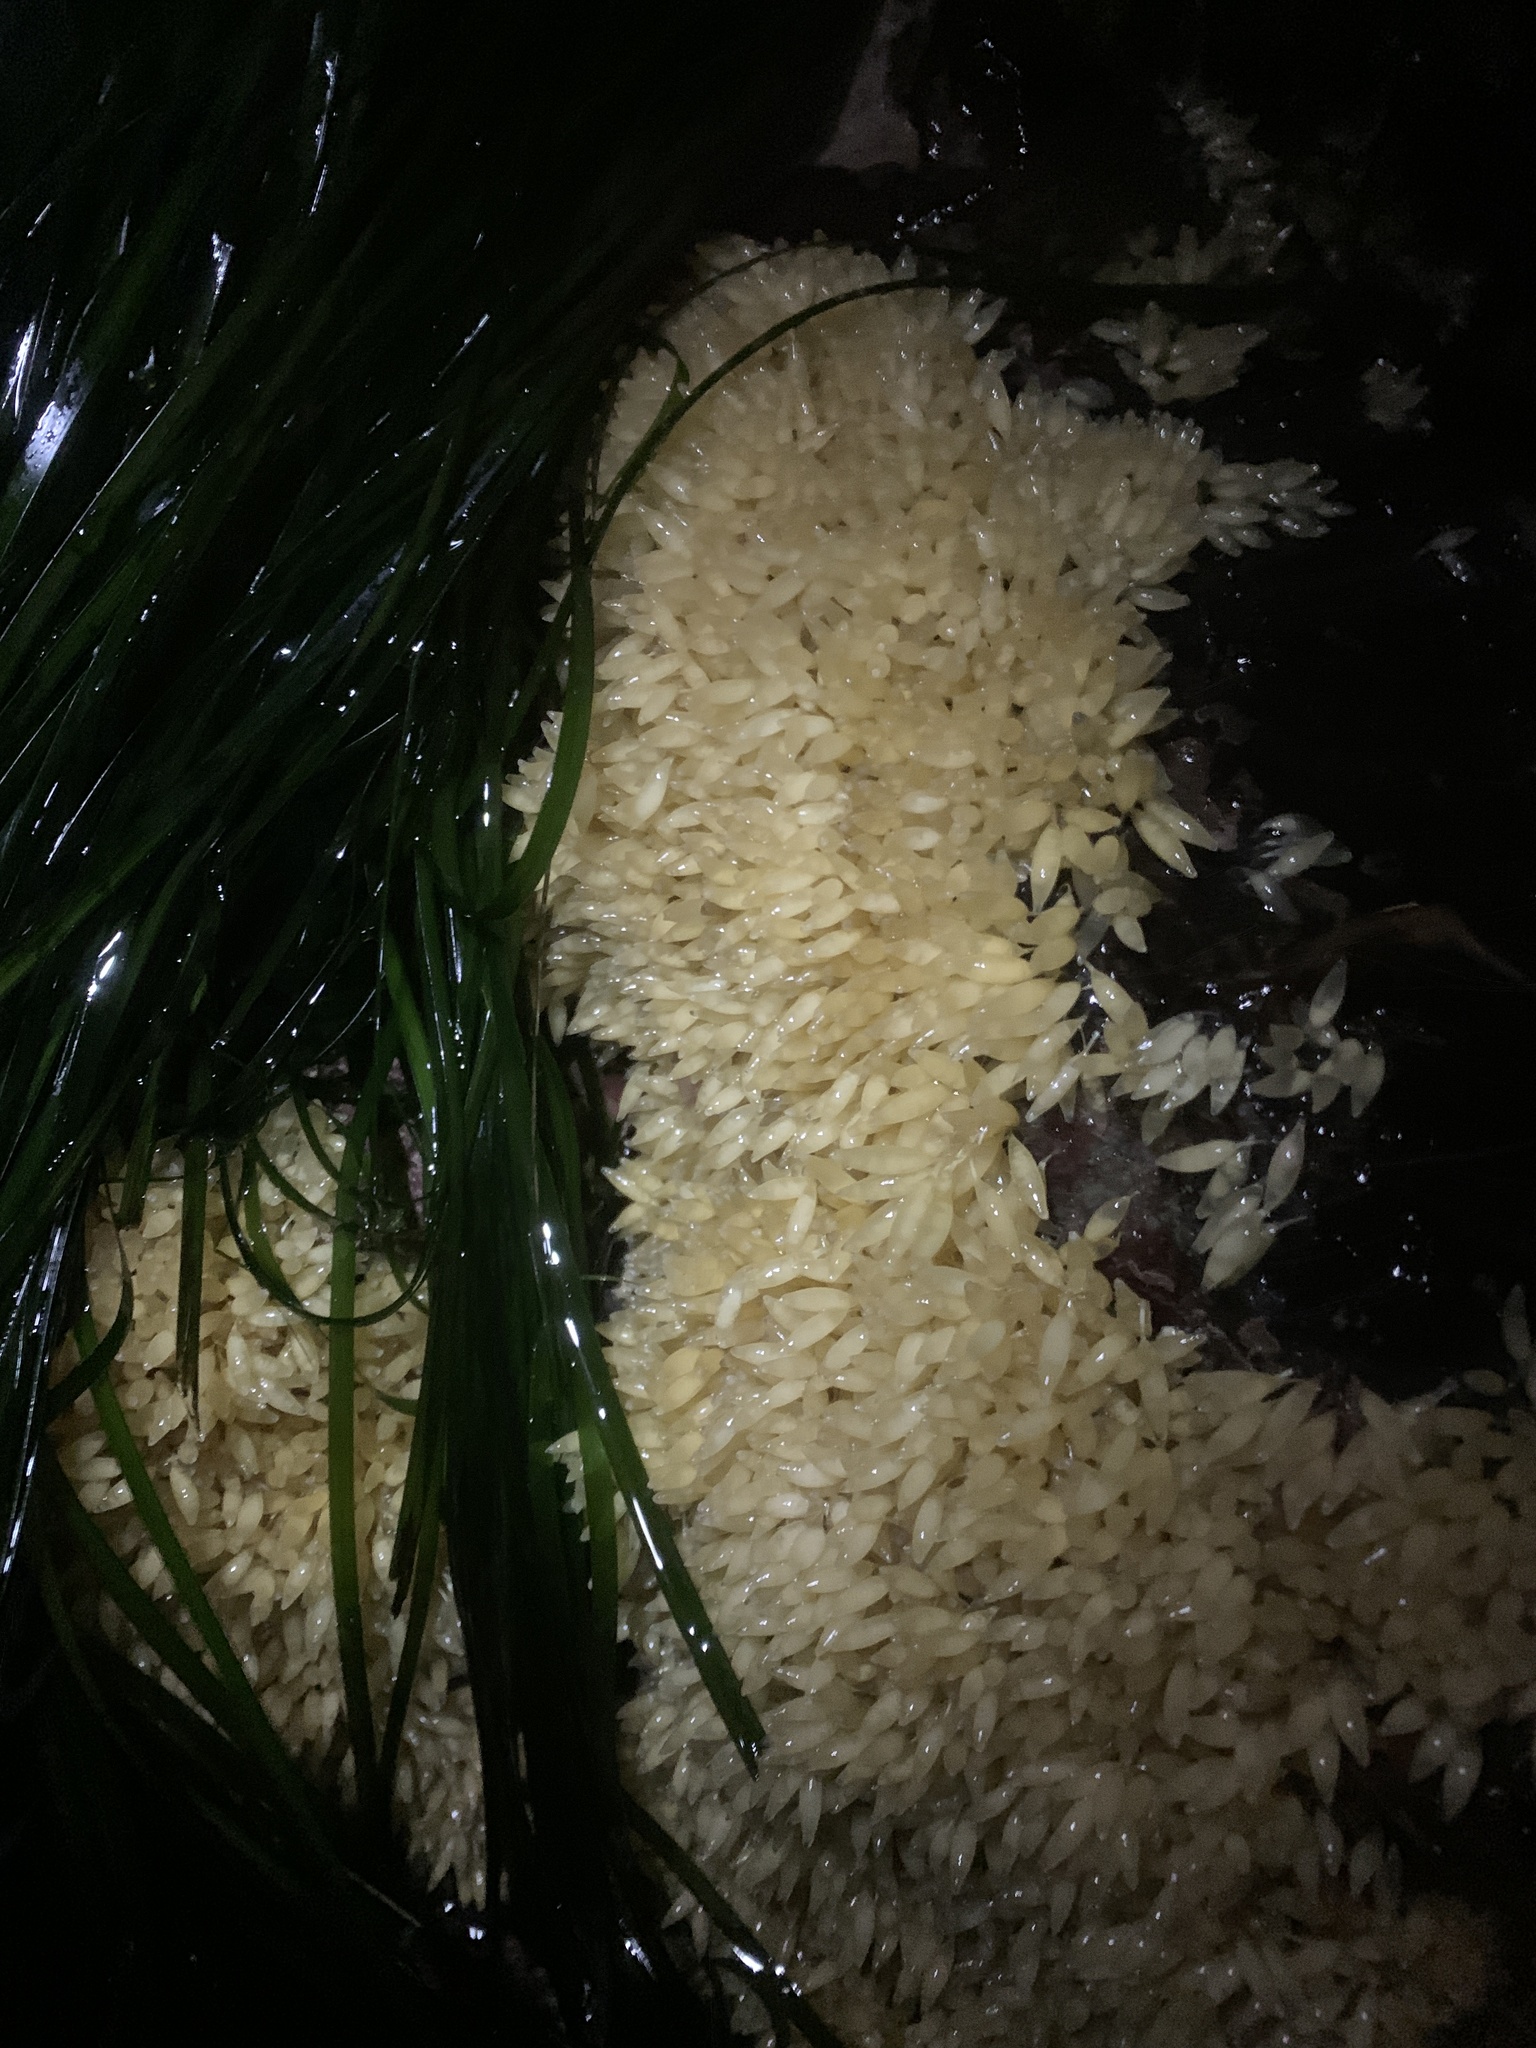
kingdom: Animalia
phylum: Mollusca
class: Gastropoda
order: Neogastropoda
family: Muricidae
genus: Nucella
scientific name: Nucella lamellosa
